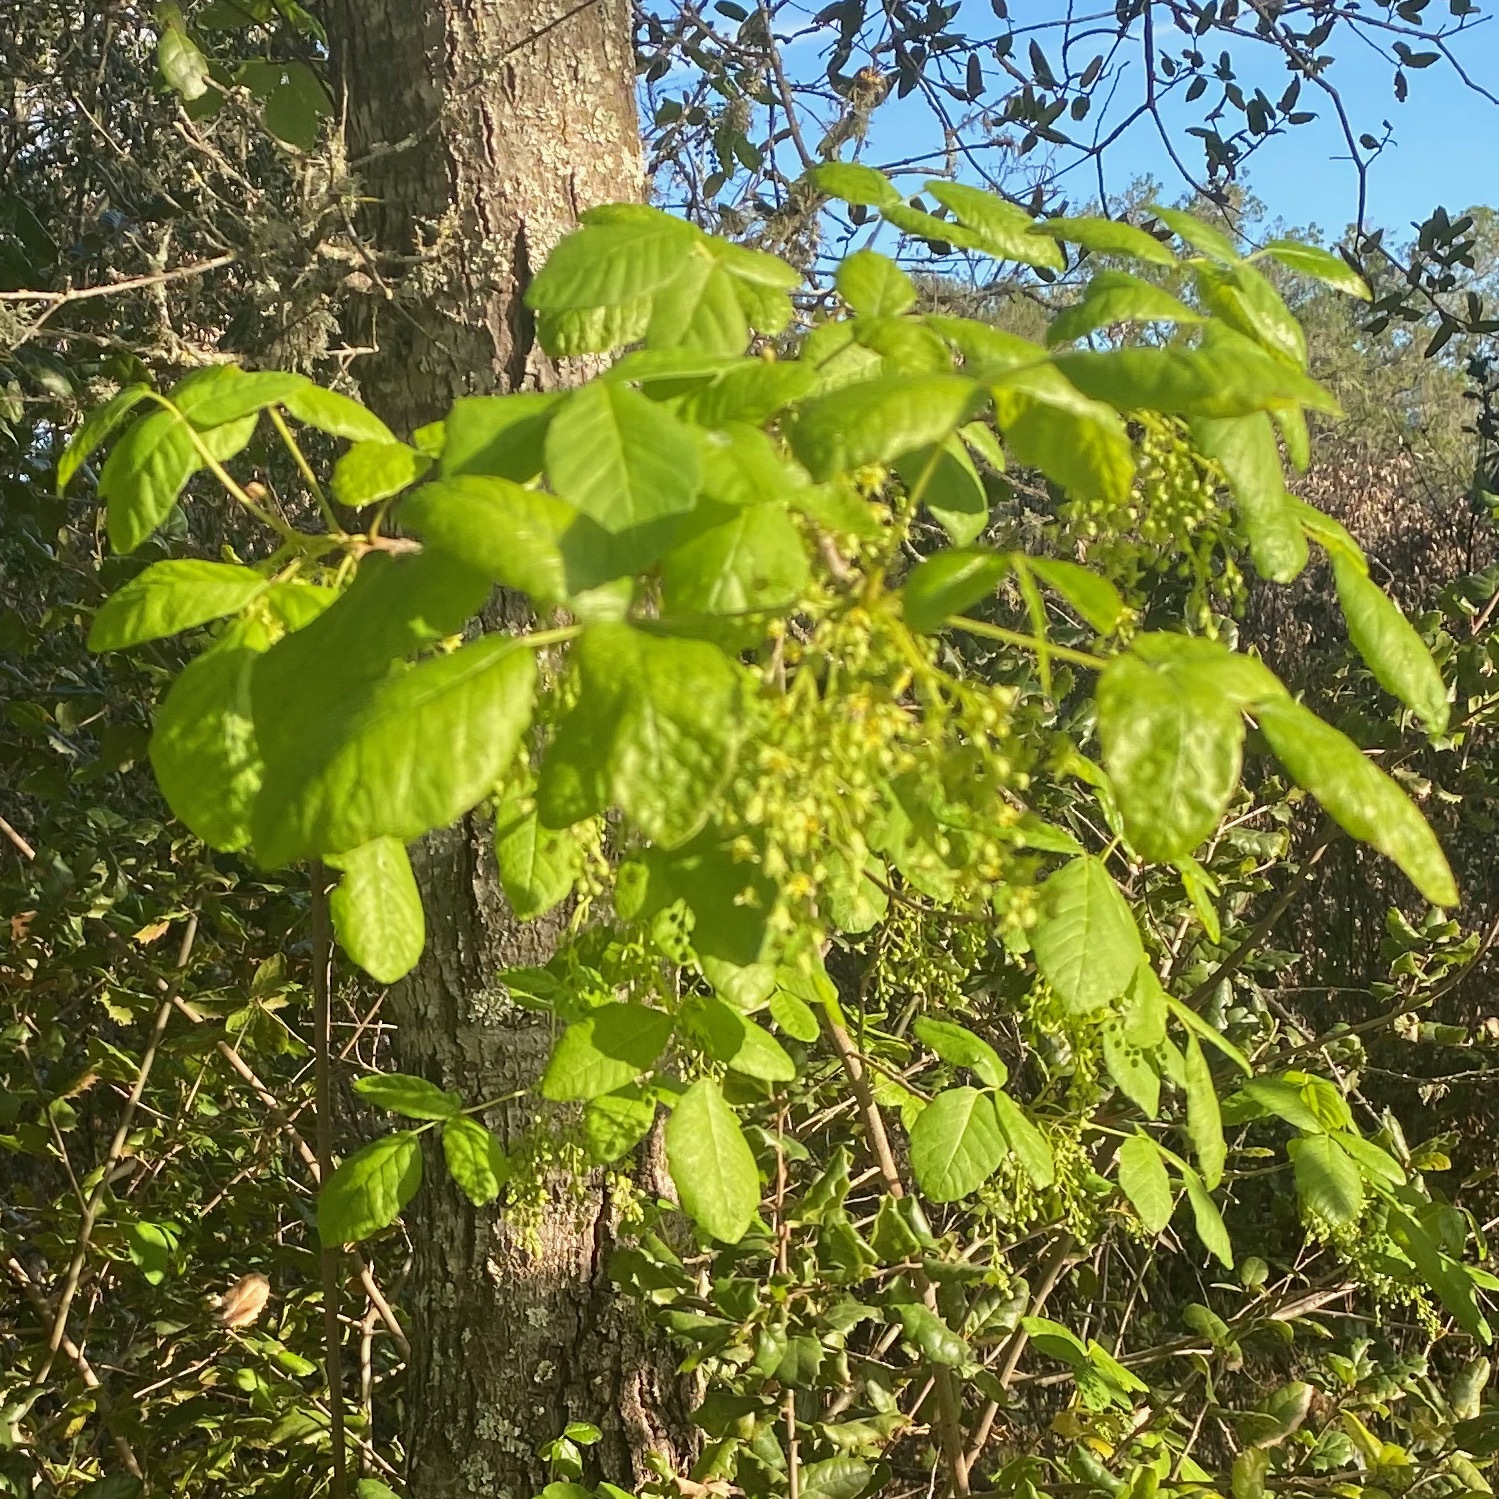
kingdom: Plantae
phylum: Tracheophyta
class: Magnoliopsida
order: Sapindales
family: Anacardiaceae
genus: Toxicodendron
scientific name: Toxicodendron diversilobum
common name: Pacific poison-oak
